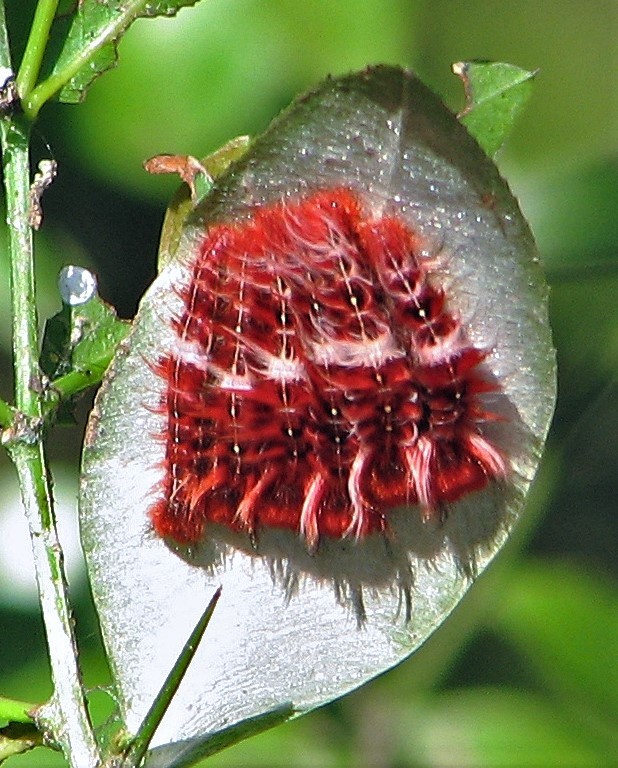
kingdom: Animalia
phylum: Arthropoda
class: Insecta
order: Lepidoptera
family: Nymphalidae
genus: Morpho
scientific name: Morpho epistrophus
